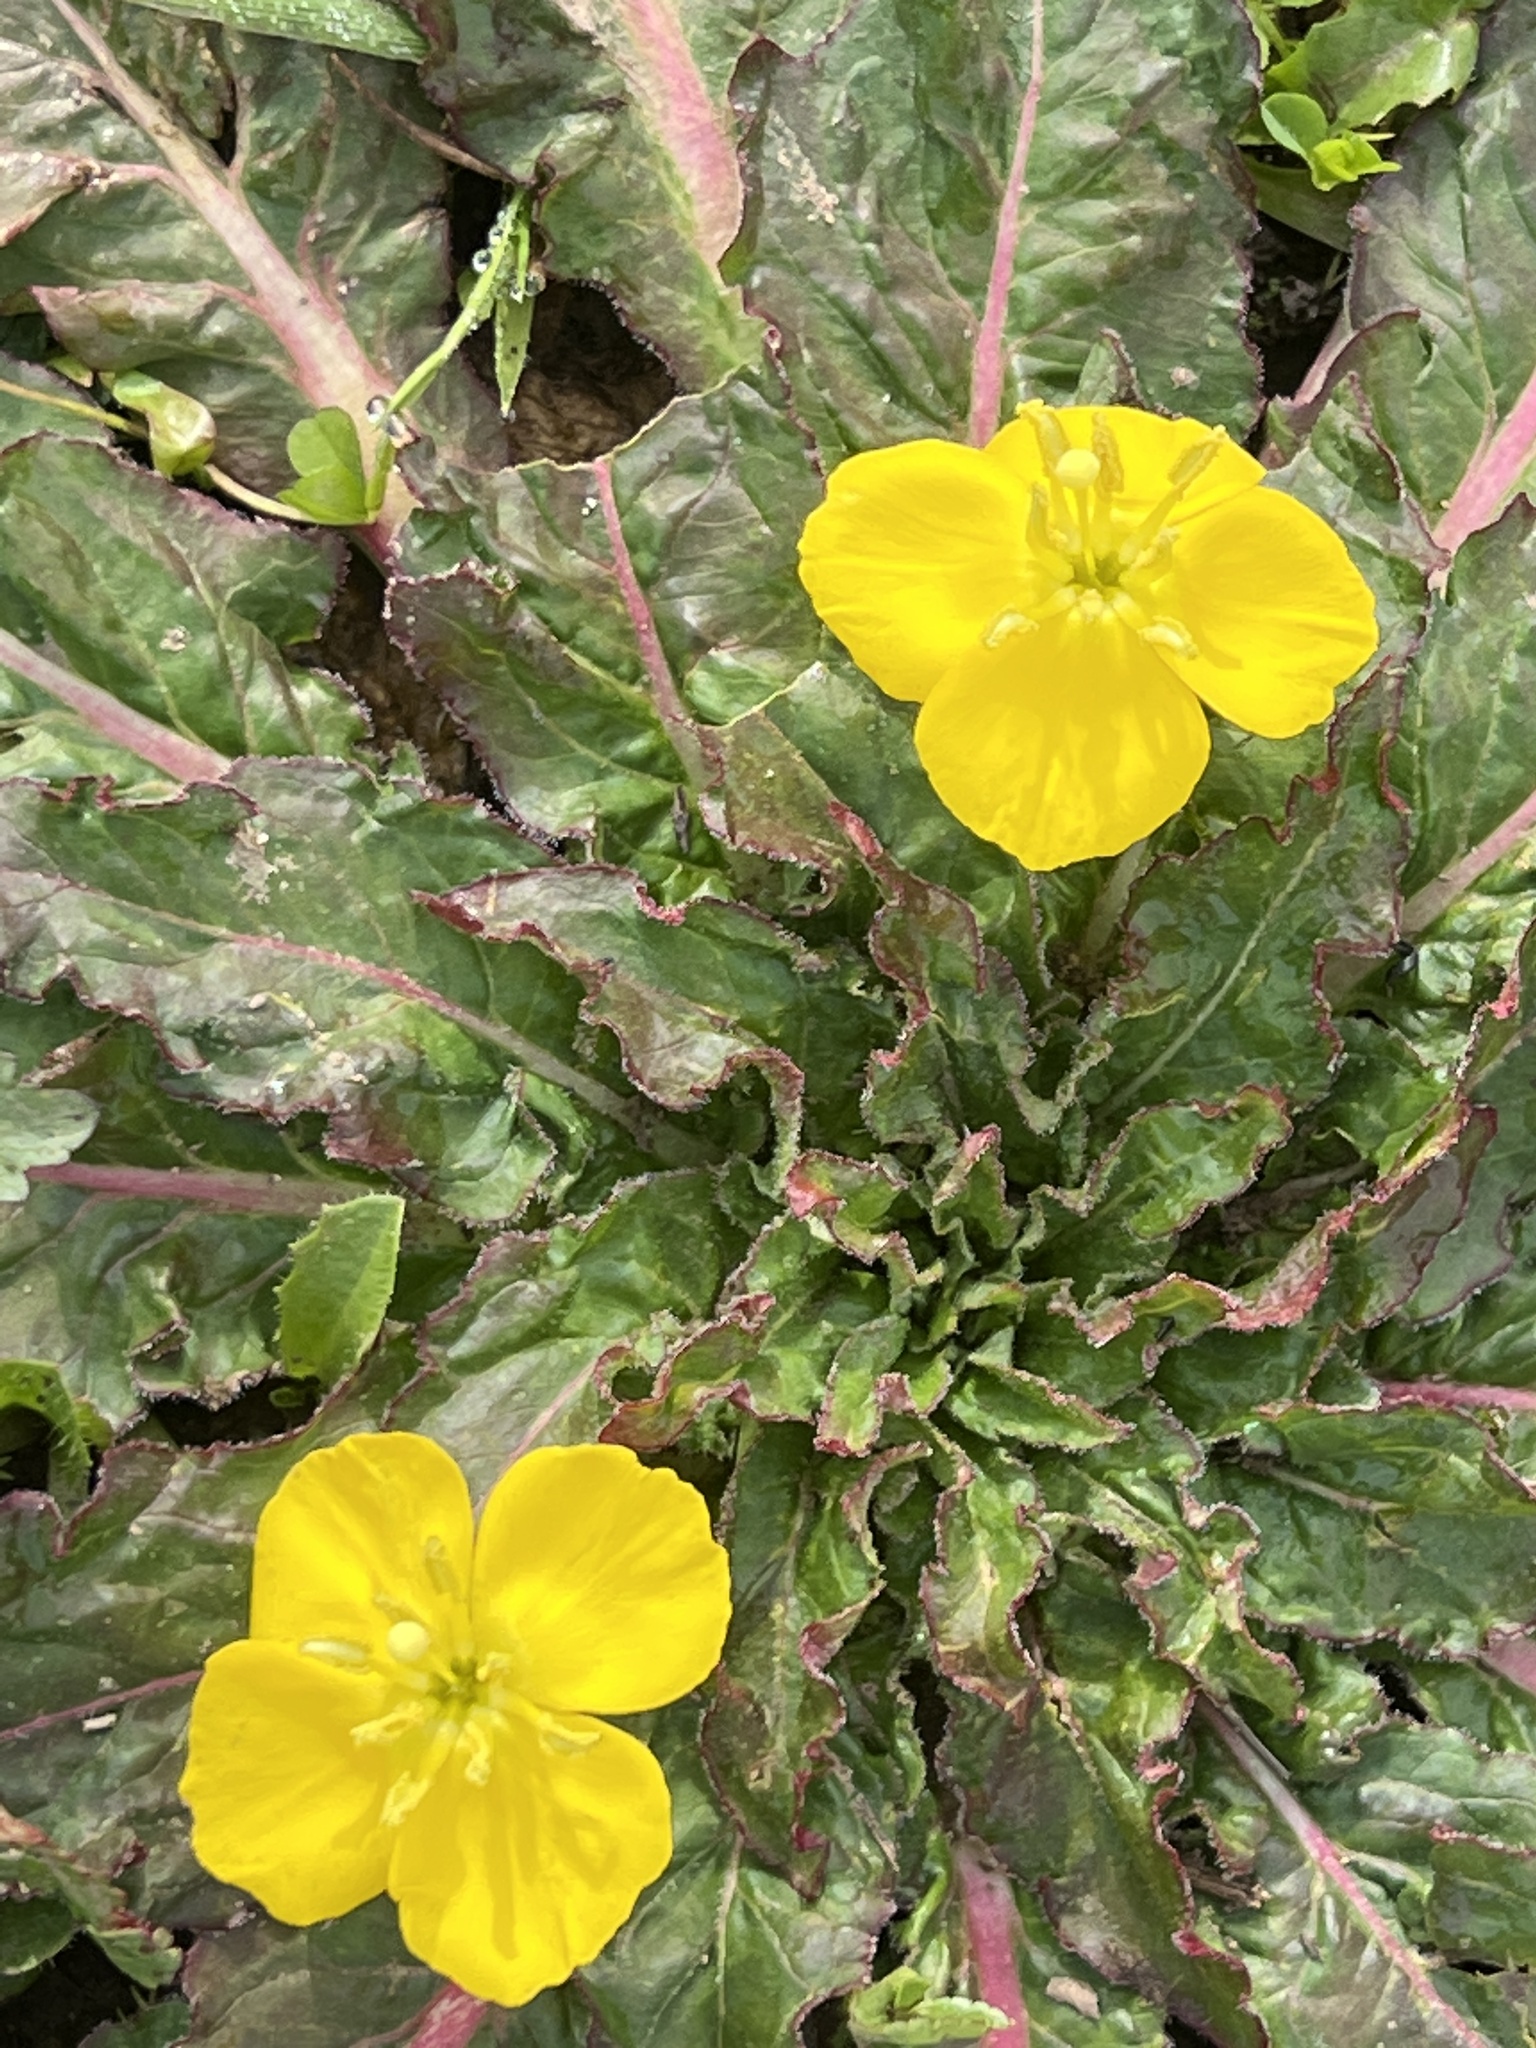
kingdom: Plantae
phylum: Tracheophyta
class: Magnoliopsida
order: Myrtales
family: Onagraceae
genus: Taraxia
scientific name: Taraxia ovata
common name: Goldeneggs
